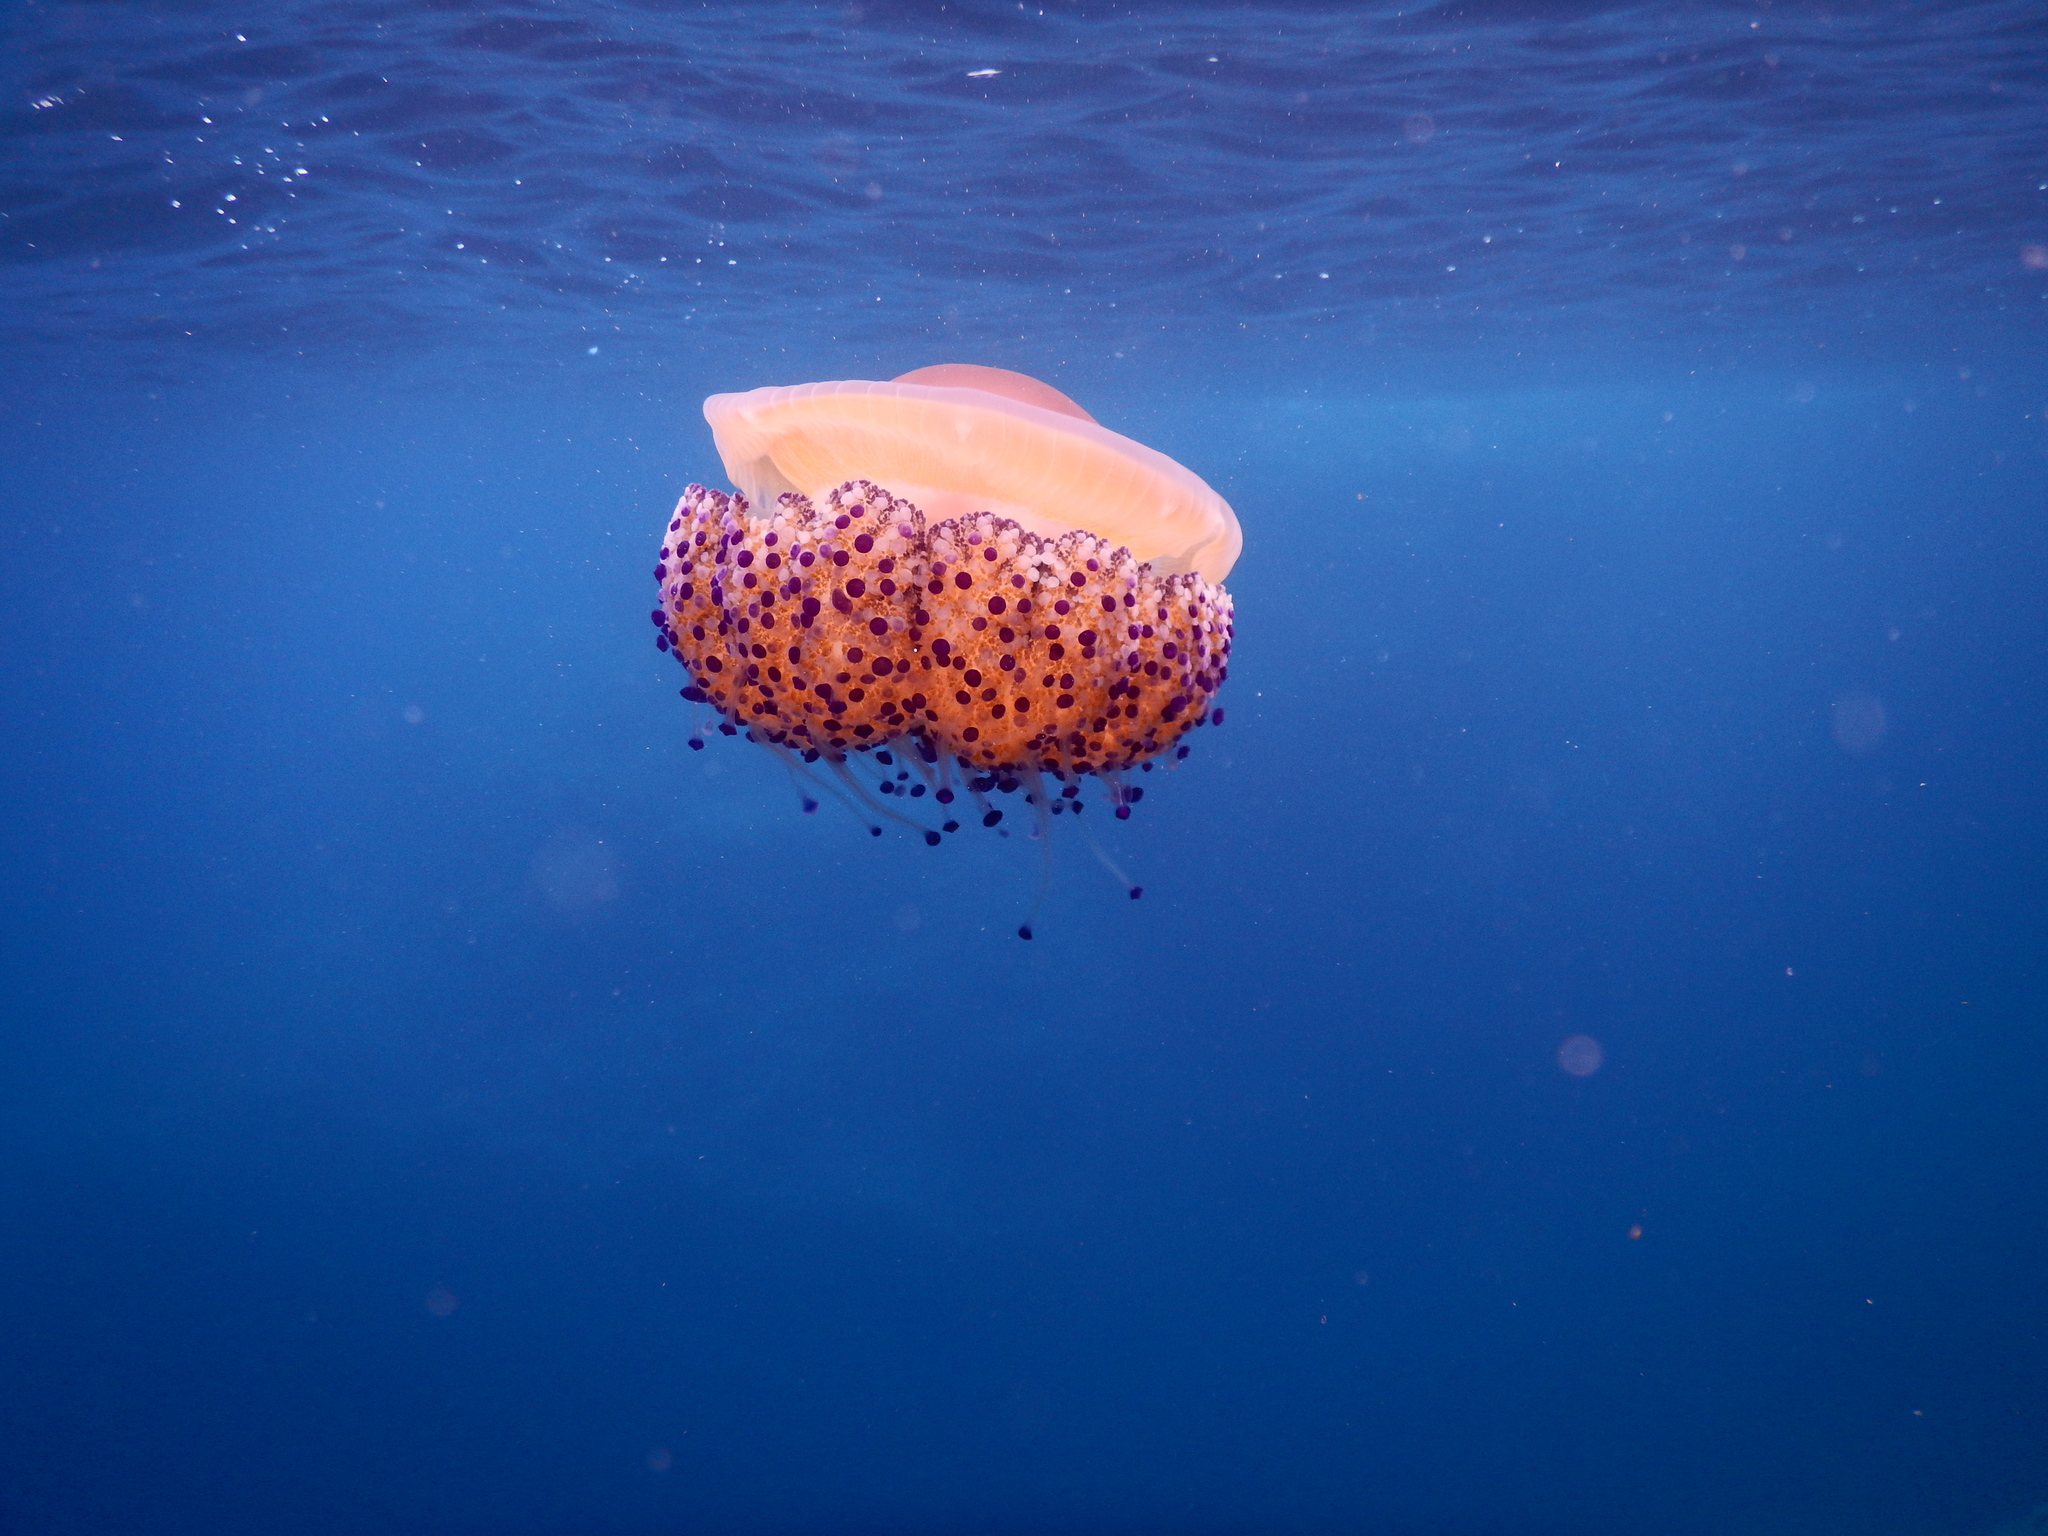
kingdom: Animalia
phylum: Cnidaria
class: Scyphozoa
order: Rhizostomeae
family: Cepheidae
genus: Cotylorhiza
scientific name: Cotylorhiza tuberculata
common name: Mediterranean jelly
